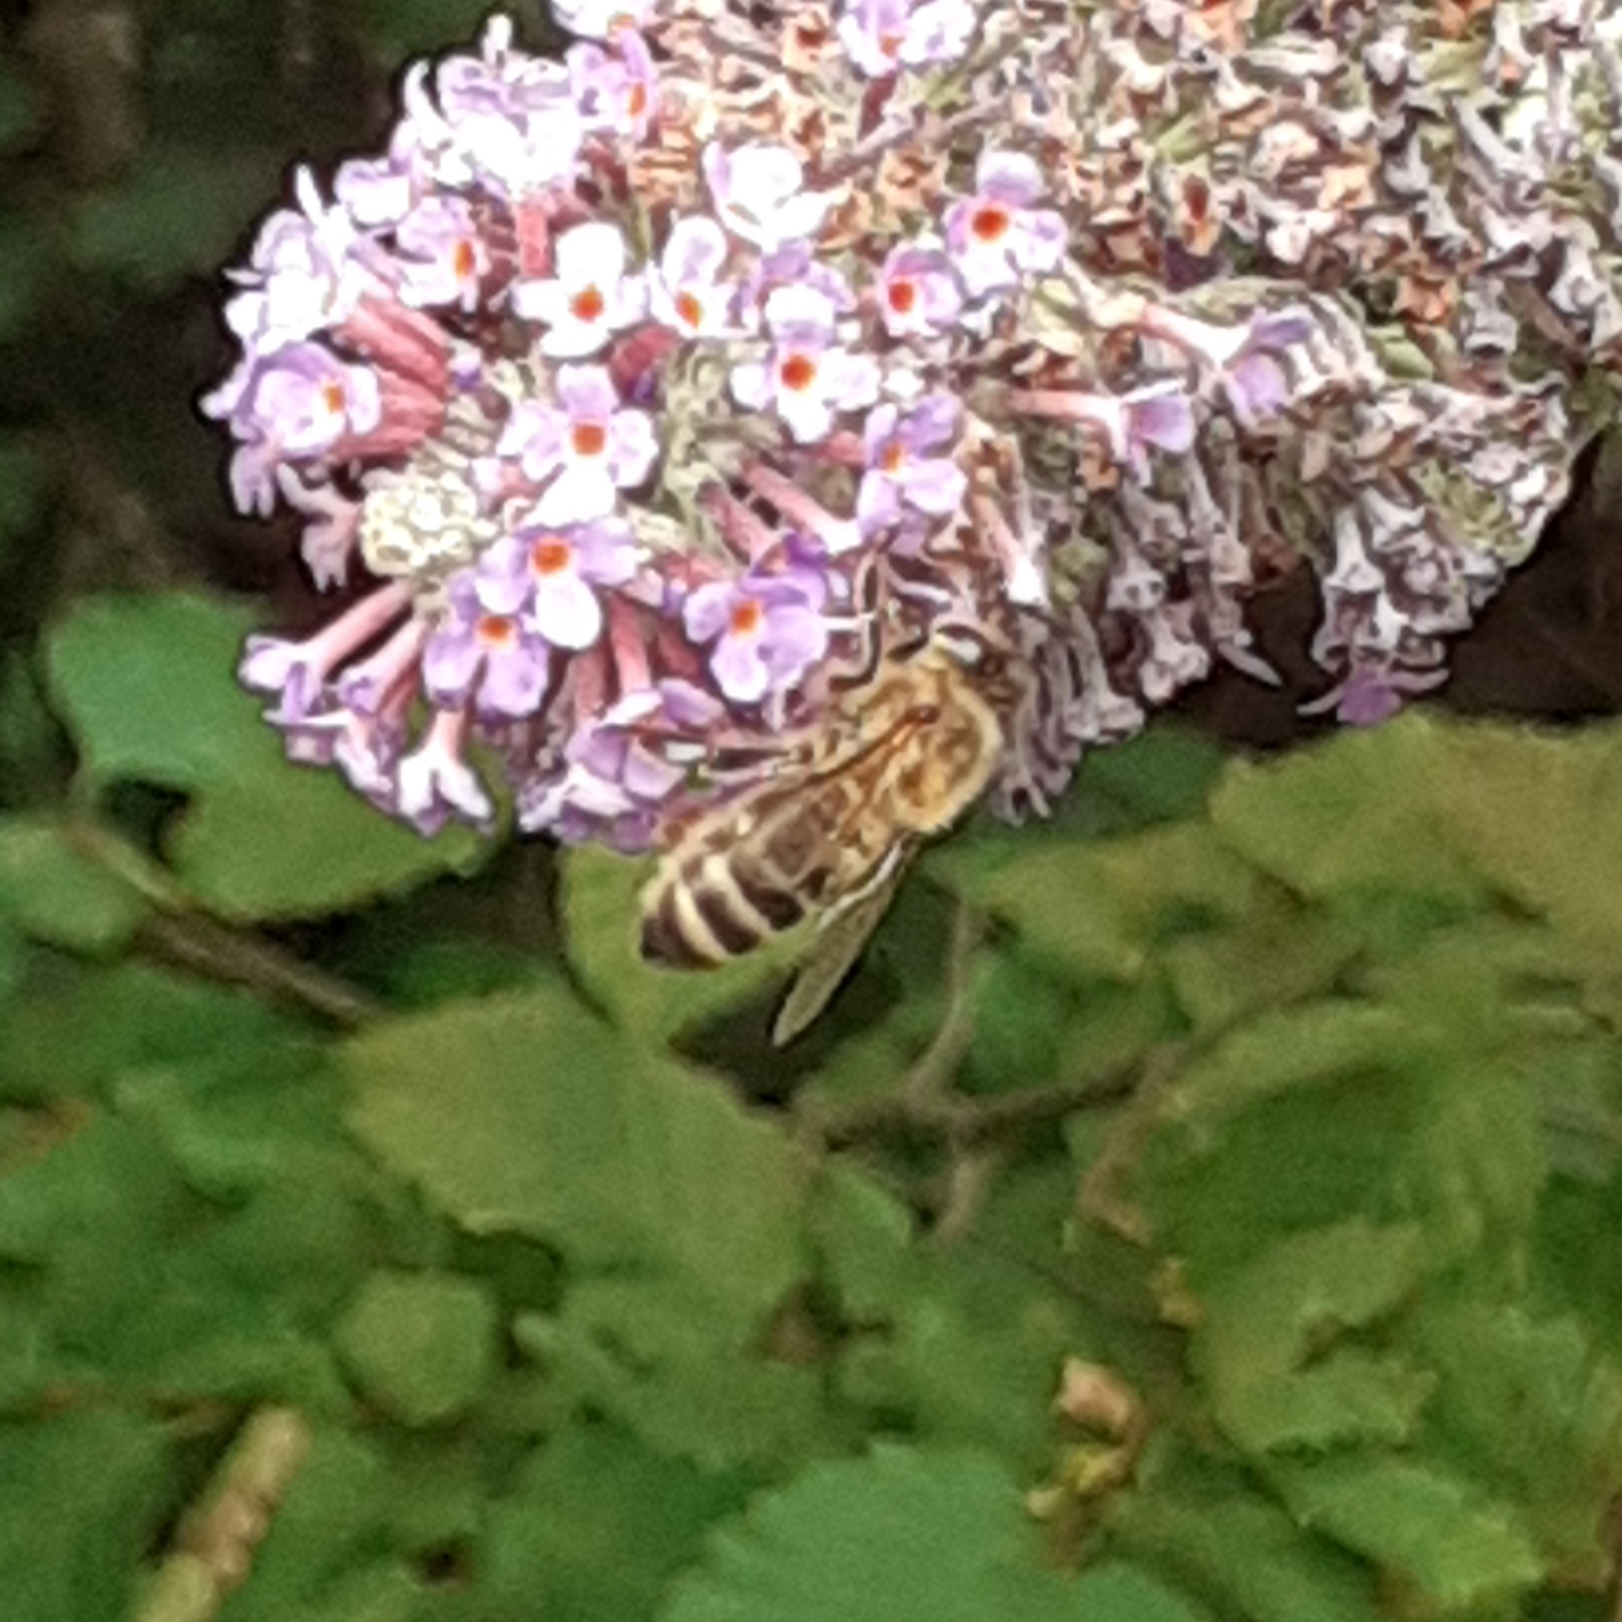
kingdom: Animalia
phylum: Arthropoda
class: Insecta
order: Hymenoptera
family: Apidae
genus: Apis
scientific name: Apis mellifera
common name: Honey bee
